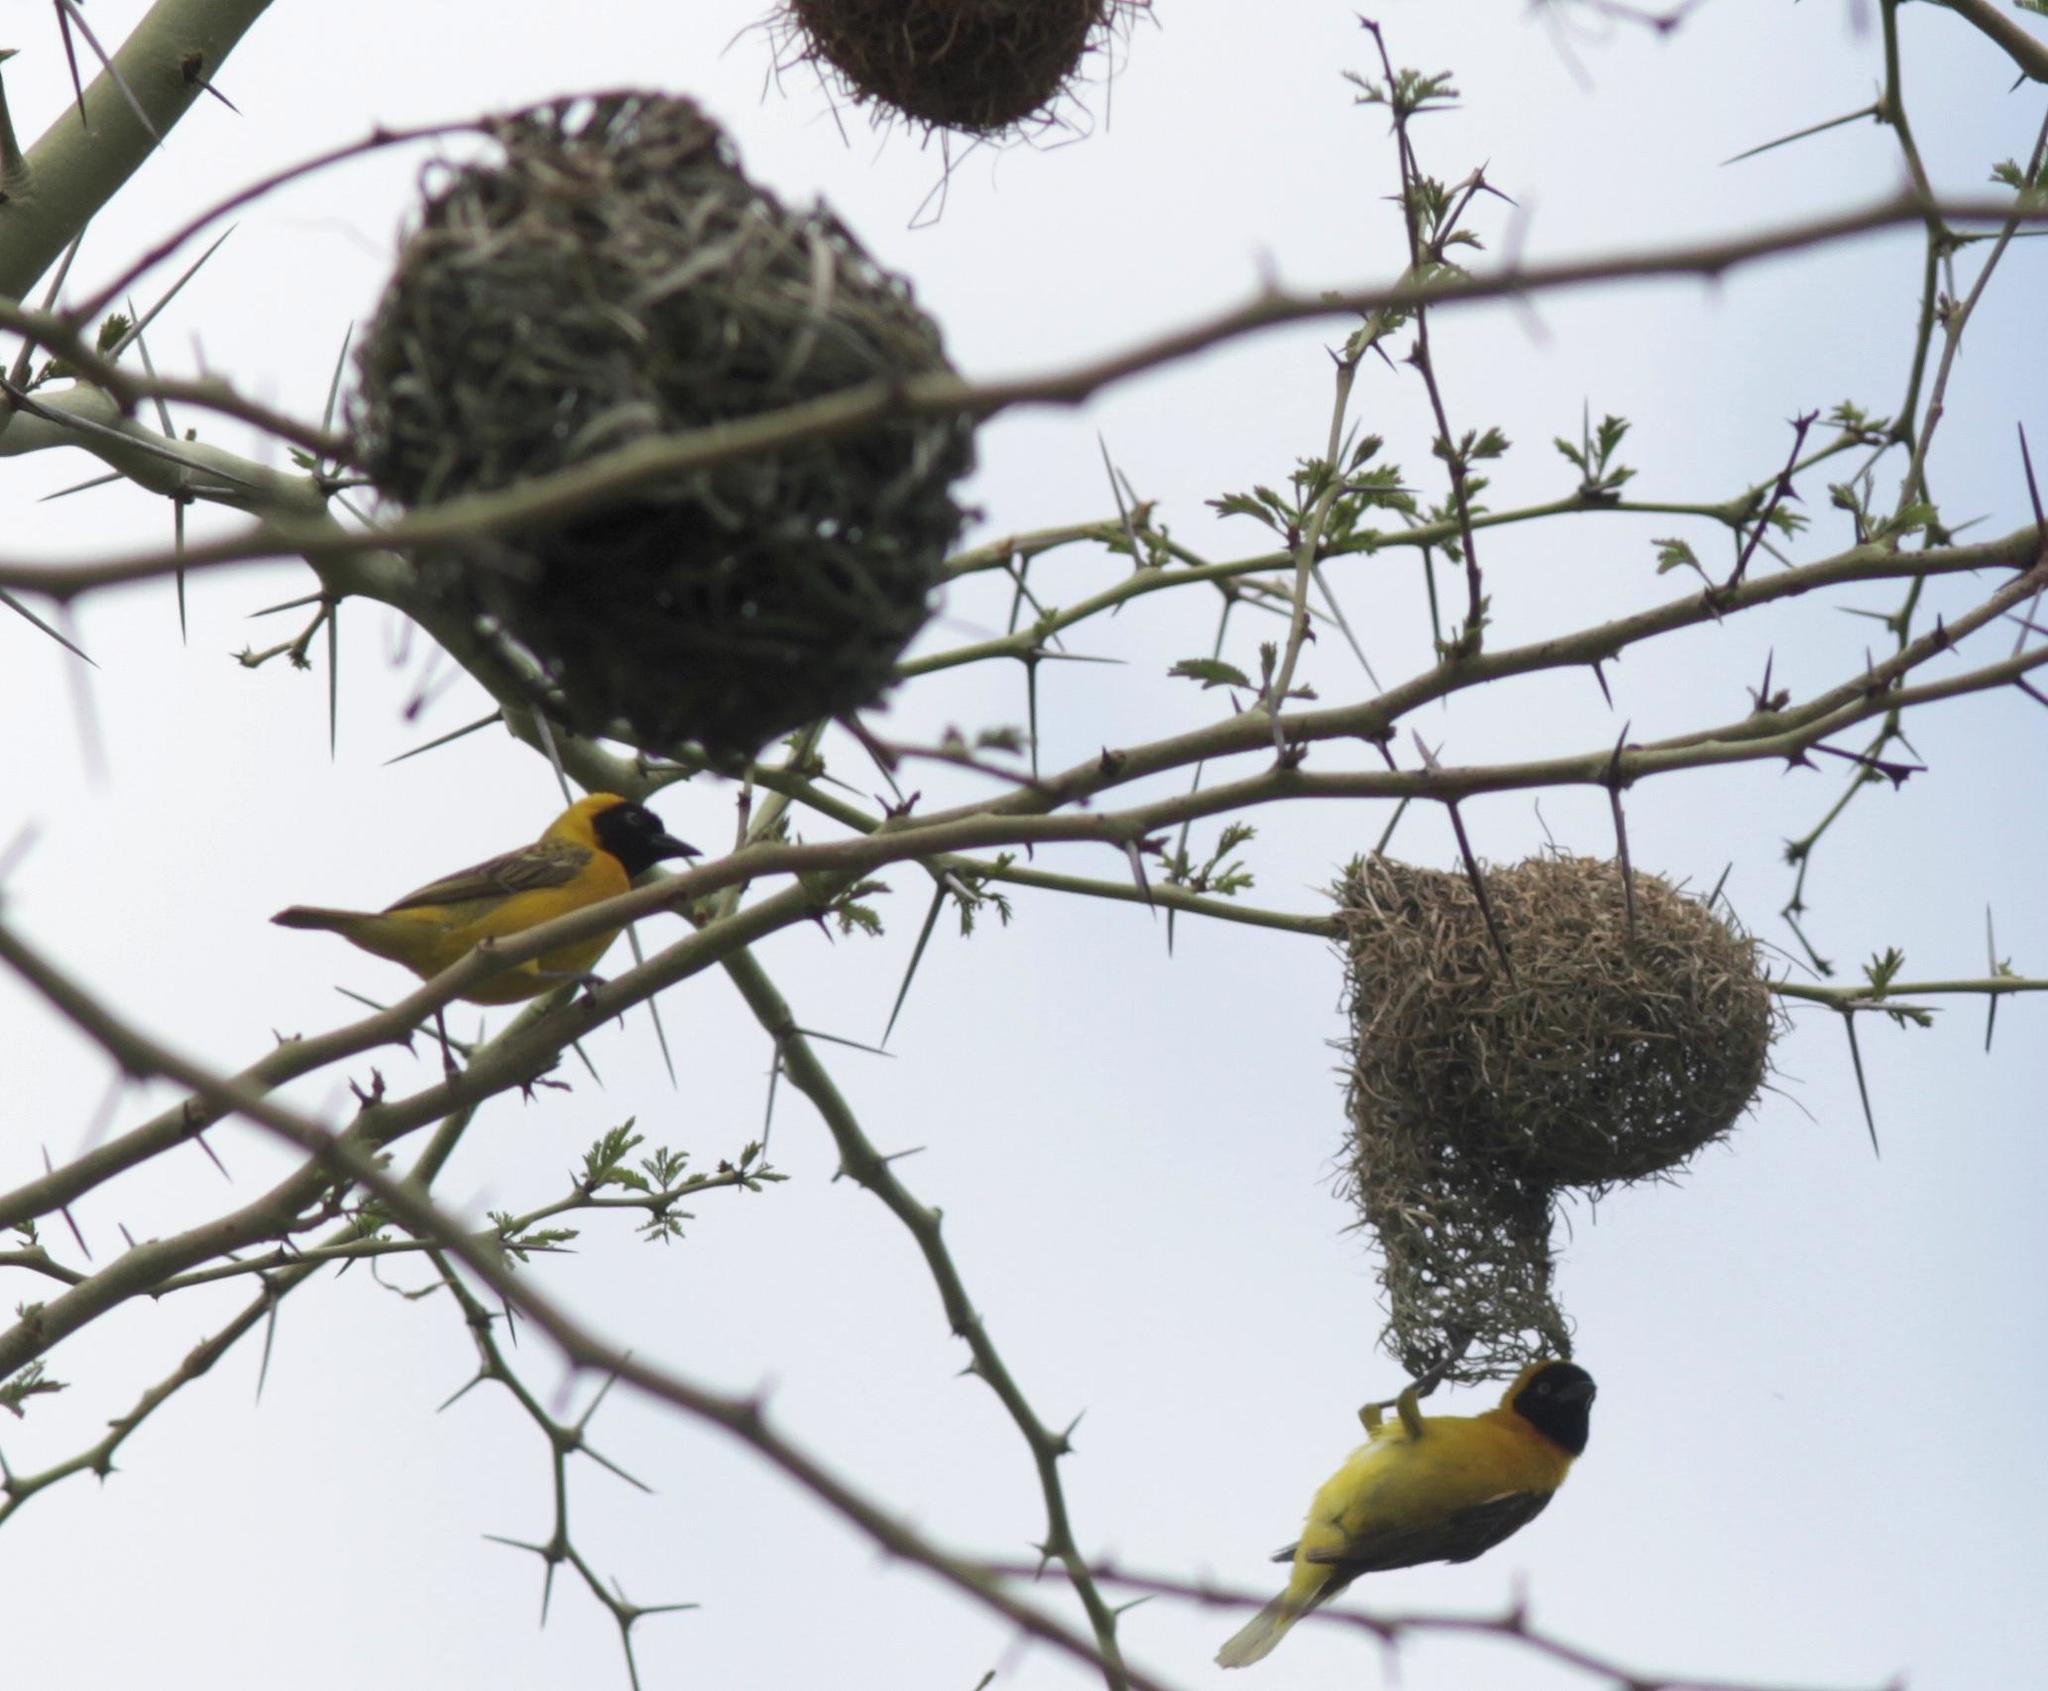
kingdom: Animalia
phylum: Chordata
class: Aves
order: Passeriformes
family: Ploceidae
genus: Ploceus
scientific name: Ploceus intermedius
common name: Lesser masked weaver
